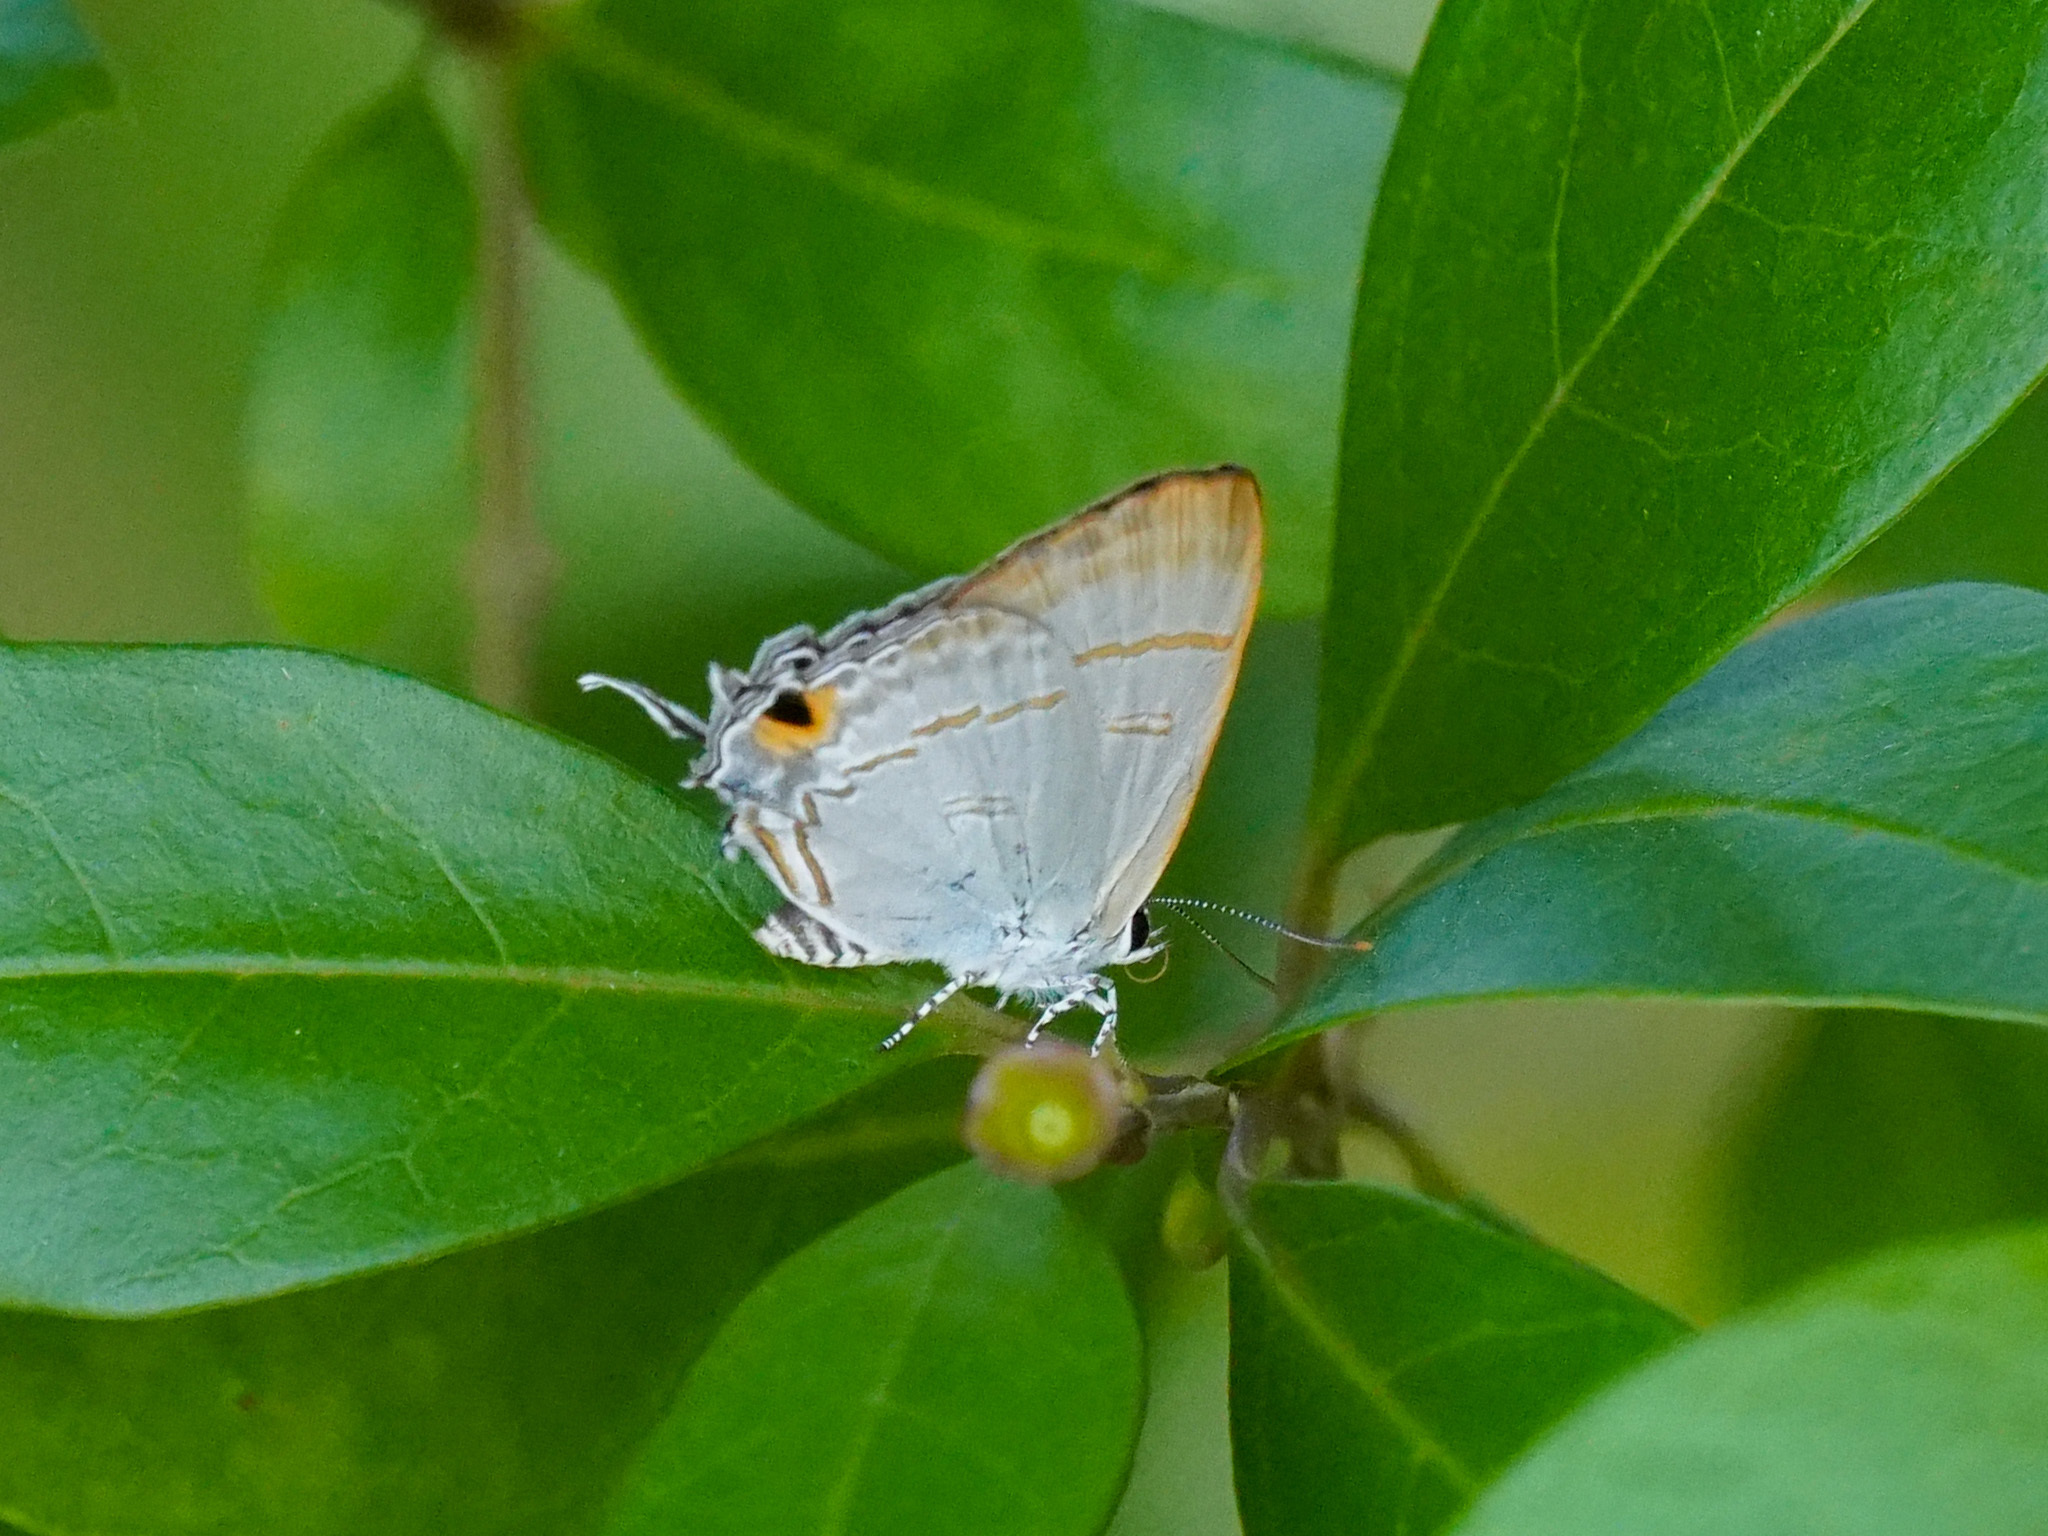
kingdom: Animalia
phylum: Arthropoda
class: Insecta
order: Lepidoptera
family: Lycaenidae
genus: Hypolycaena
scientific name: Hypolycaena erylus
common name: Common tit
